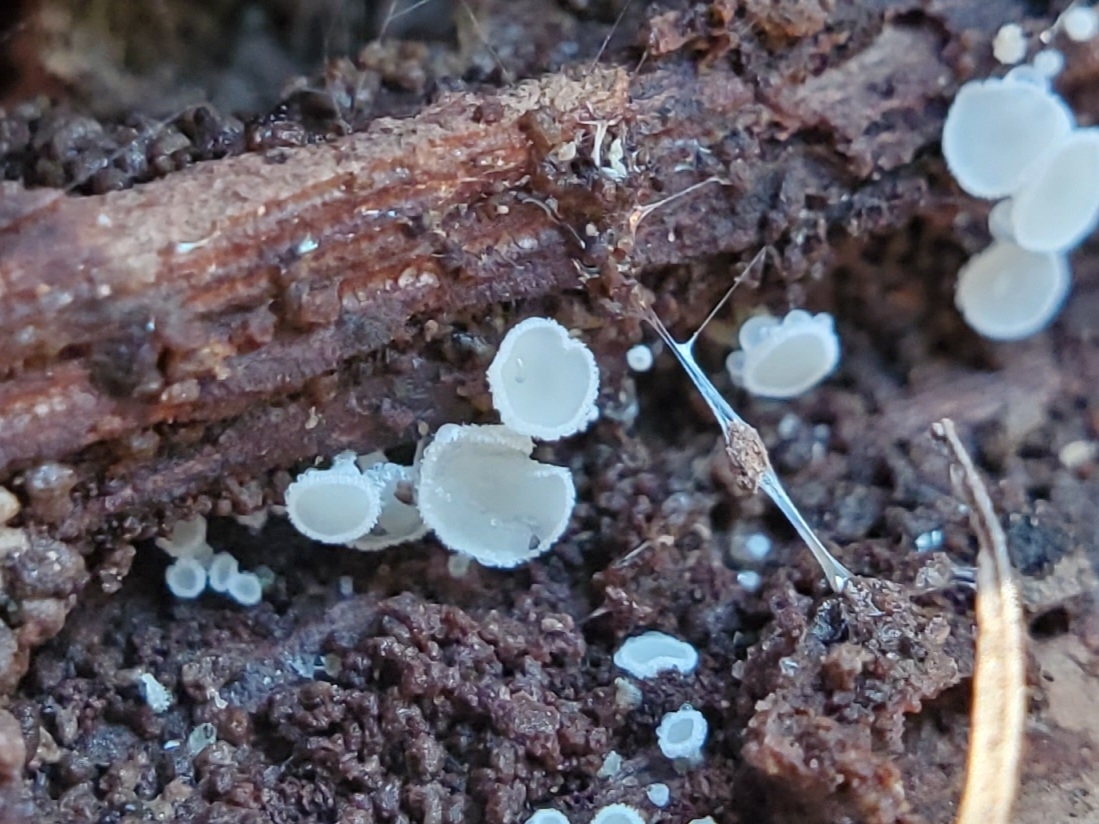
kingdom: Fungi
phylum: Ascomycota
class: Leotiomycetes
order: Helotiales
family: Lachnaceae
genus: Lachnum
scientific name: Lachnum virgineum
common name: Snowy disco
